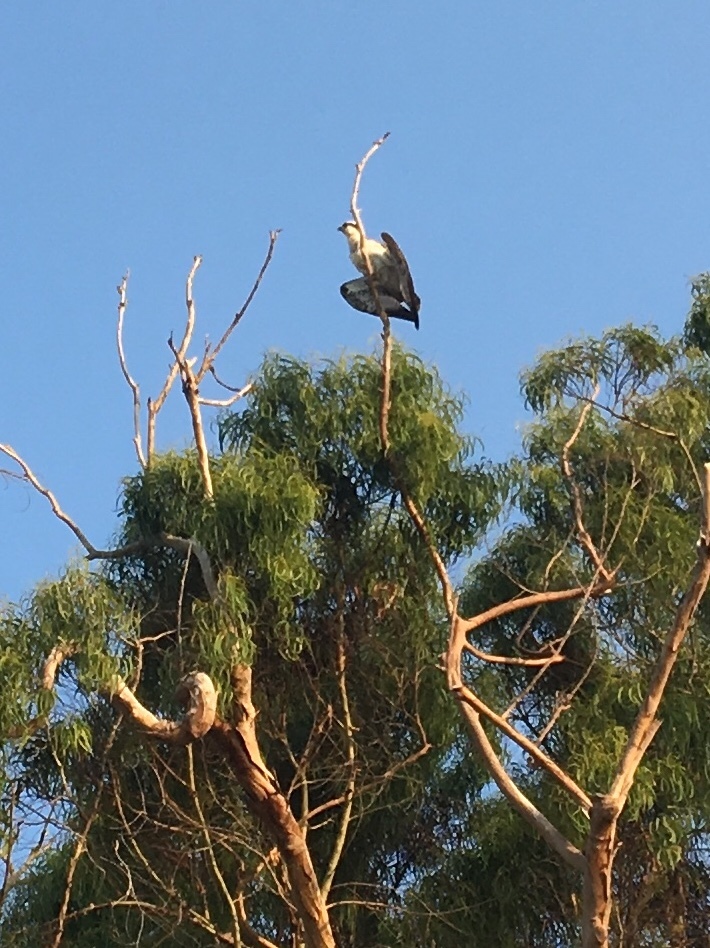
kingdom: Animalia
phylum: Chordata
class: Aves
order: Accipitriformes
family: Pandionidae
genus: Pandion
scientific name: Pandion haliaetus
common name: Osprey
